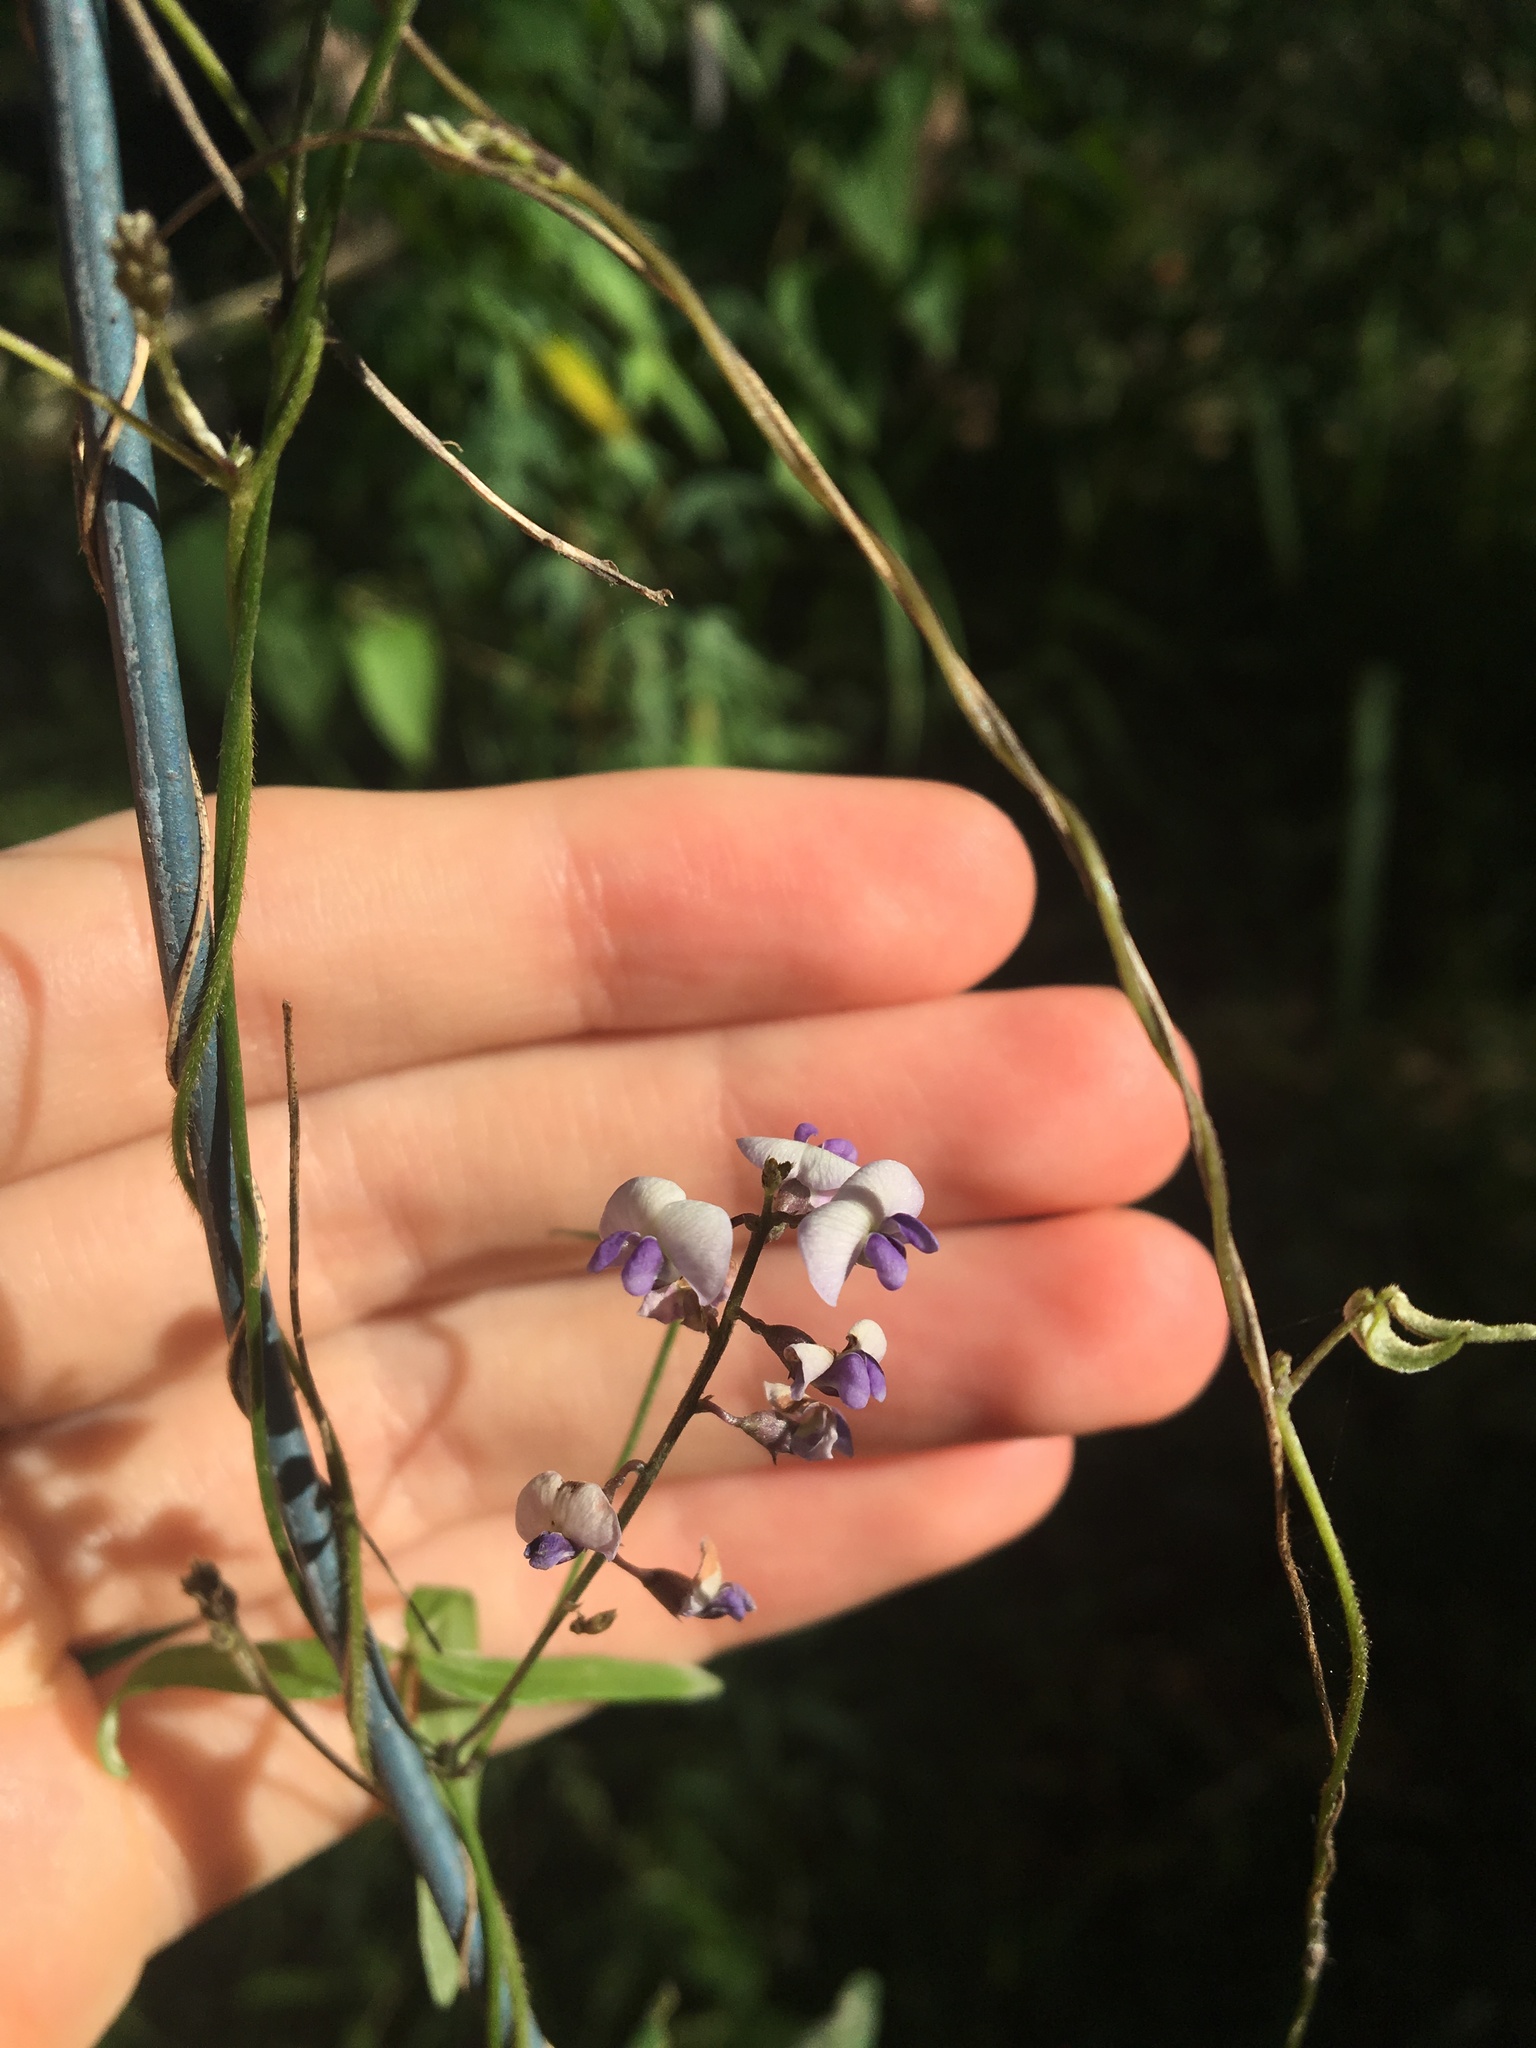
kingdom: Plantae
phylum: Tracheophyta
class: Magnoliopsida
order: Fabales
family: Fabaceae
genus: Glycine
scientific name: Glycine clandestina
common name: Twining glycine
